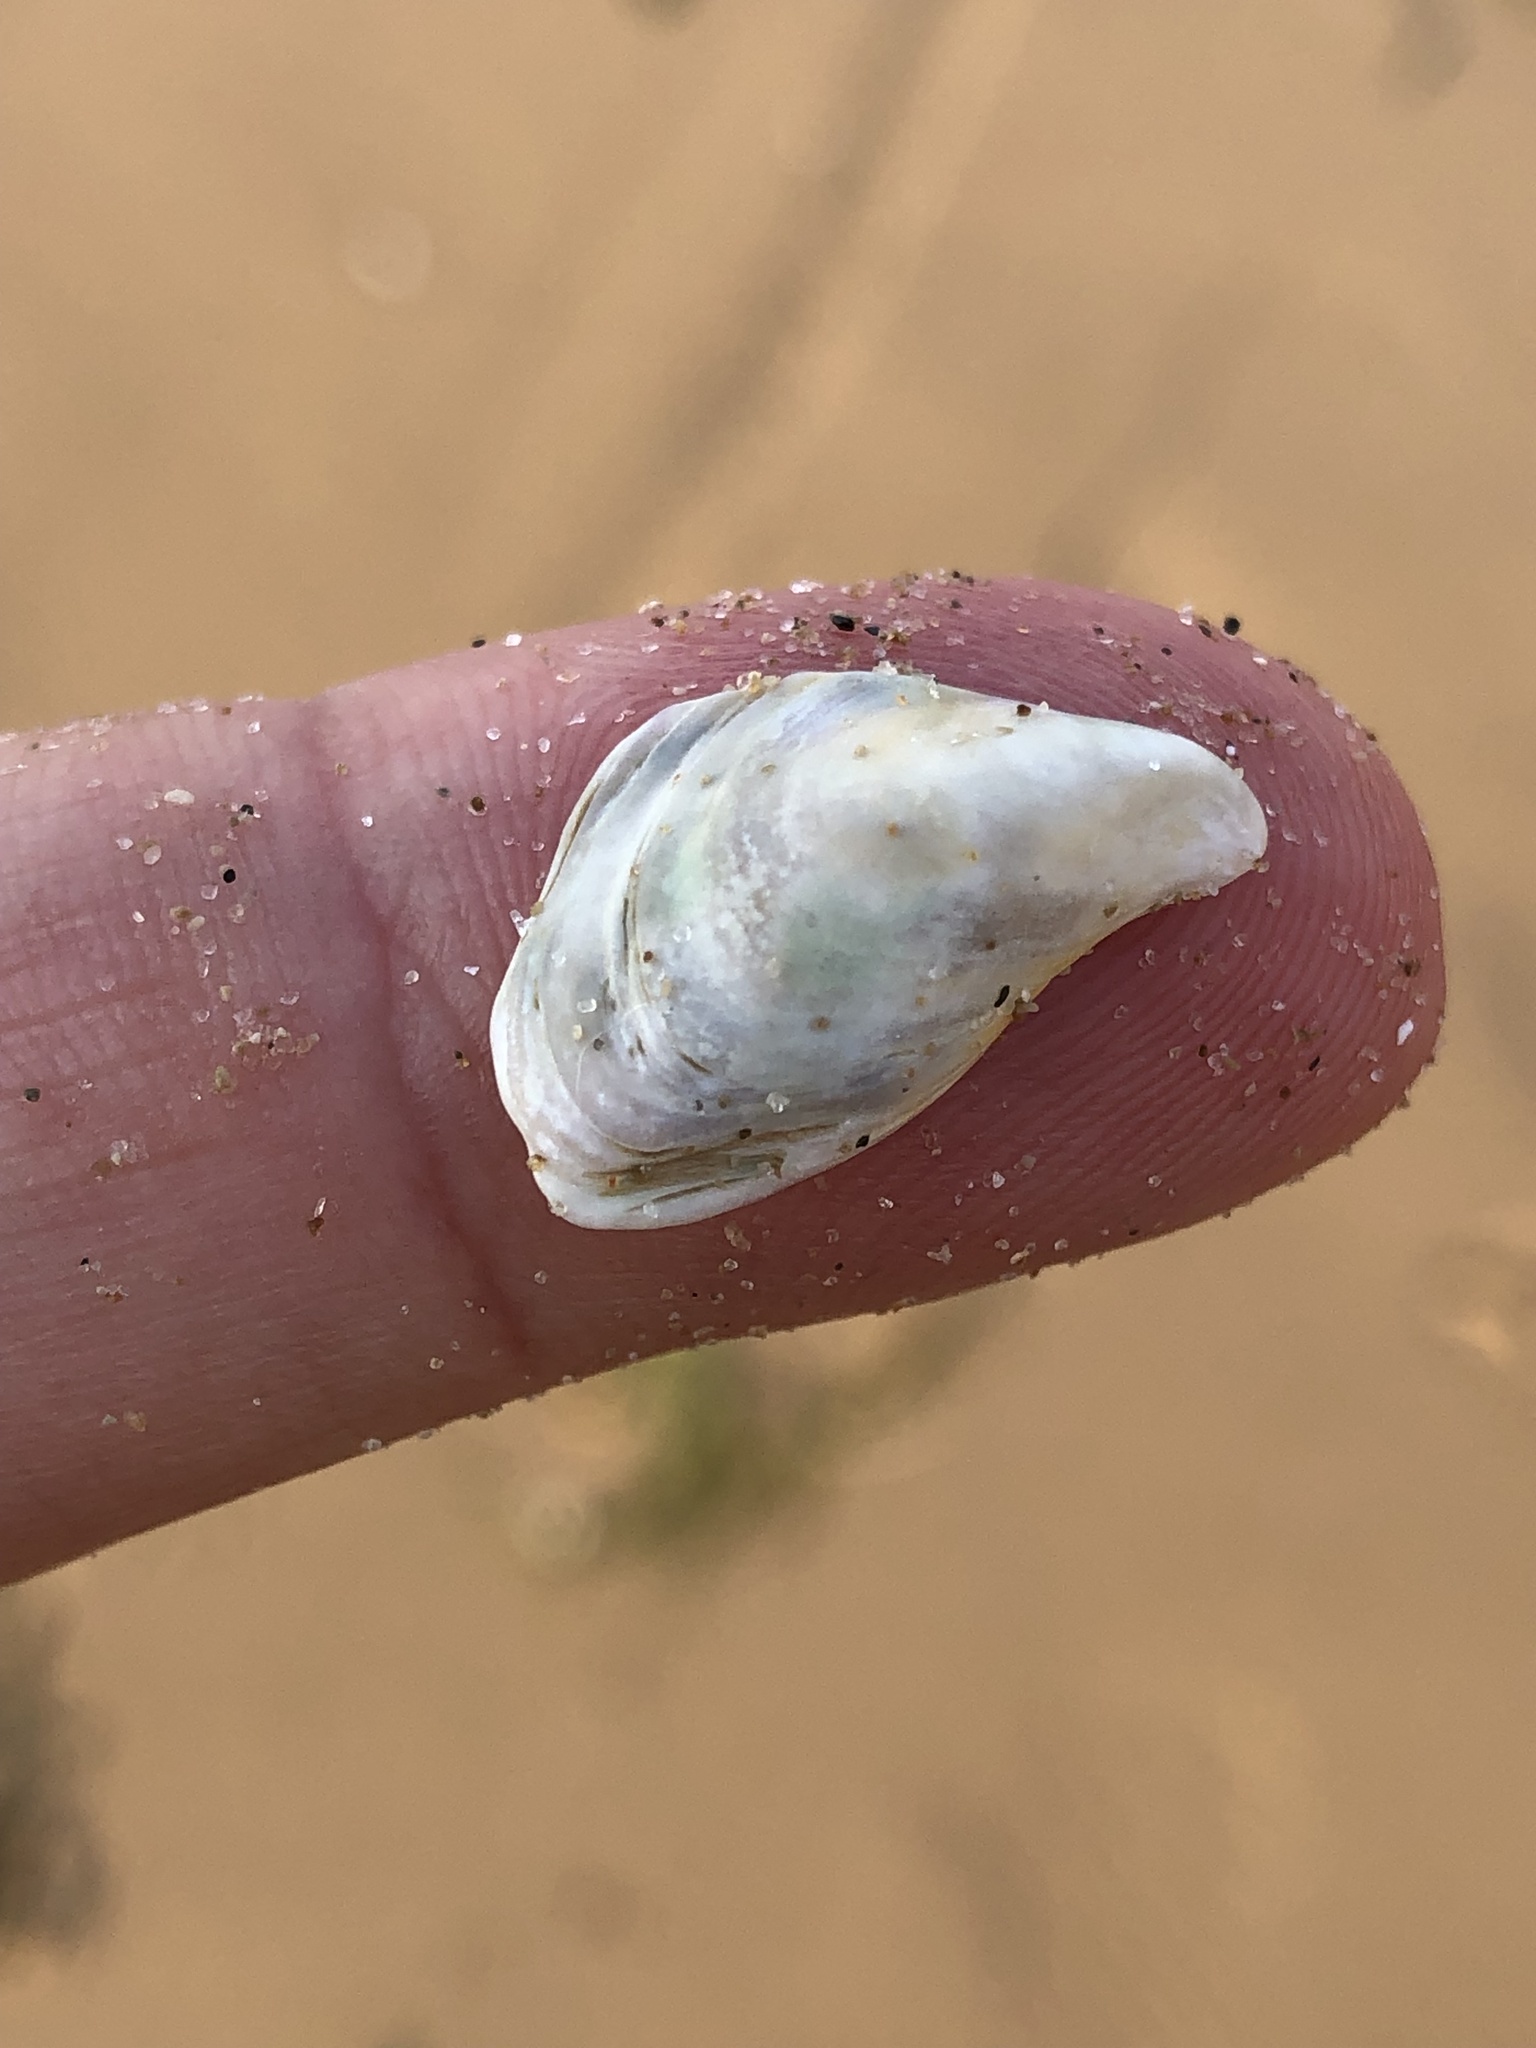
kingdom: Animalia
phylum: Mollusca
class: Bivalvia
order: Myida
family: Dreissenidae
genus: Dreissena
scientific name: Dreissena bugensis
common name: Quagga mussel
